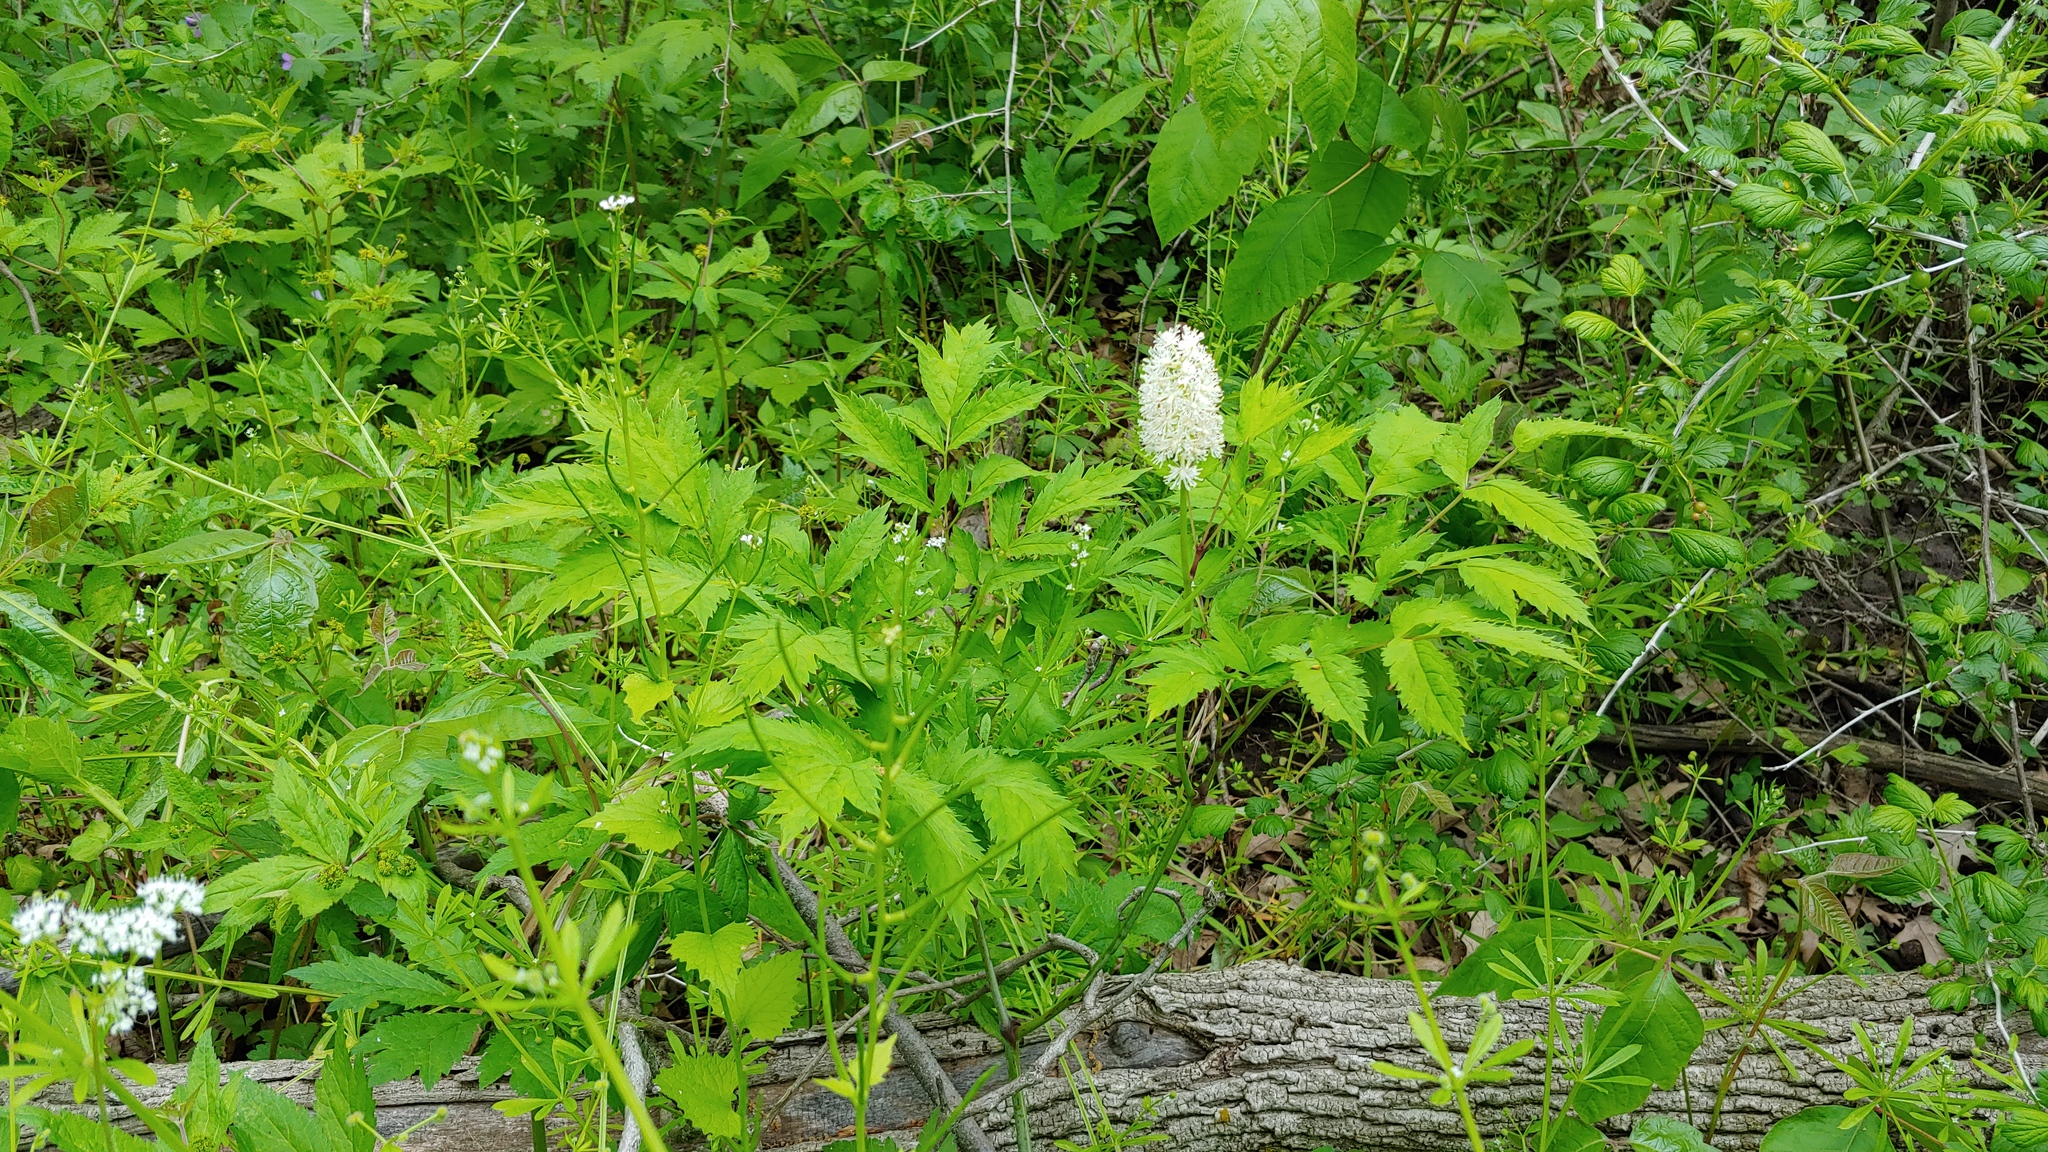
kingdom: Plantae
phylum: Tracheophyta
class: Magnoliopsida
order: Ranunculales
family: Ranunculaceae
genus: Actaea
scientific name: Actaea pachypoda
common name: Doll's-eyes
